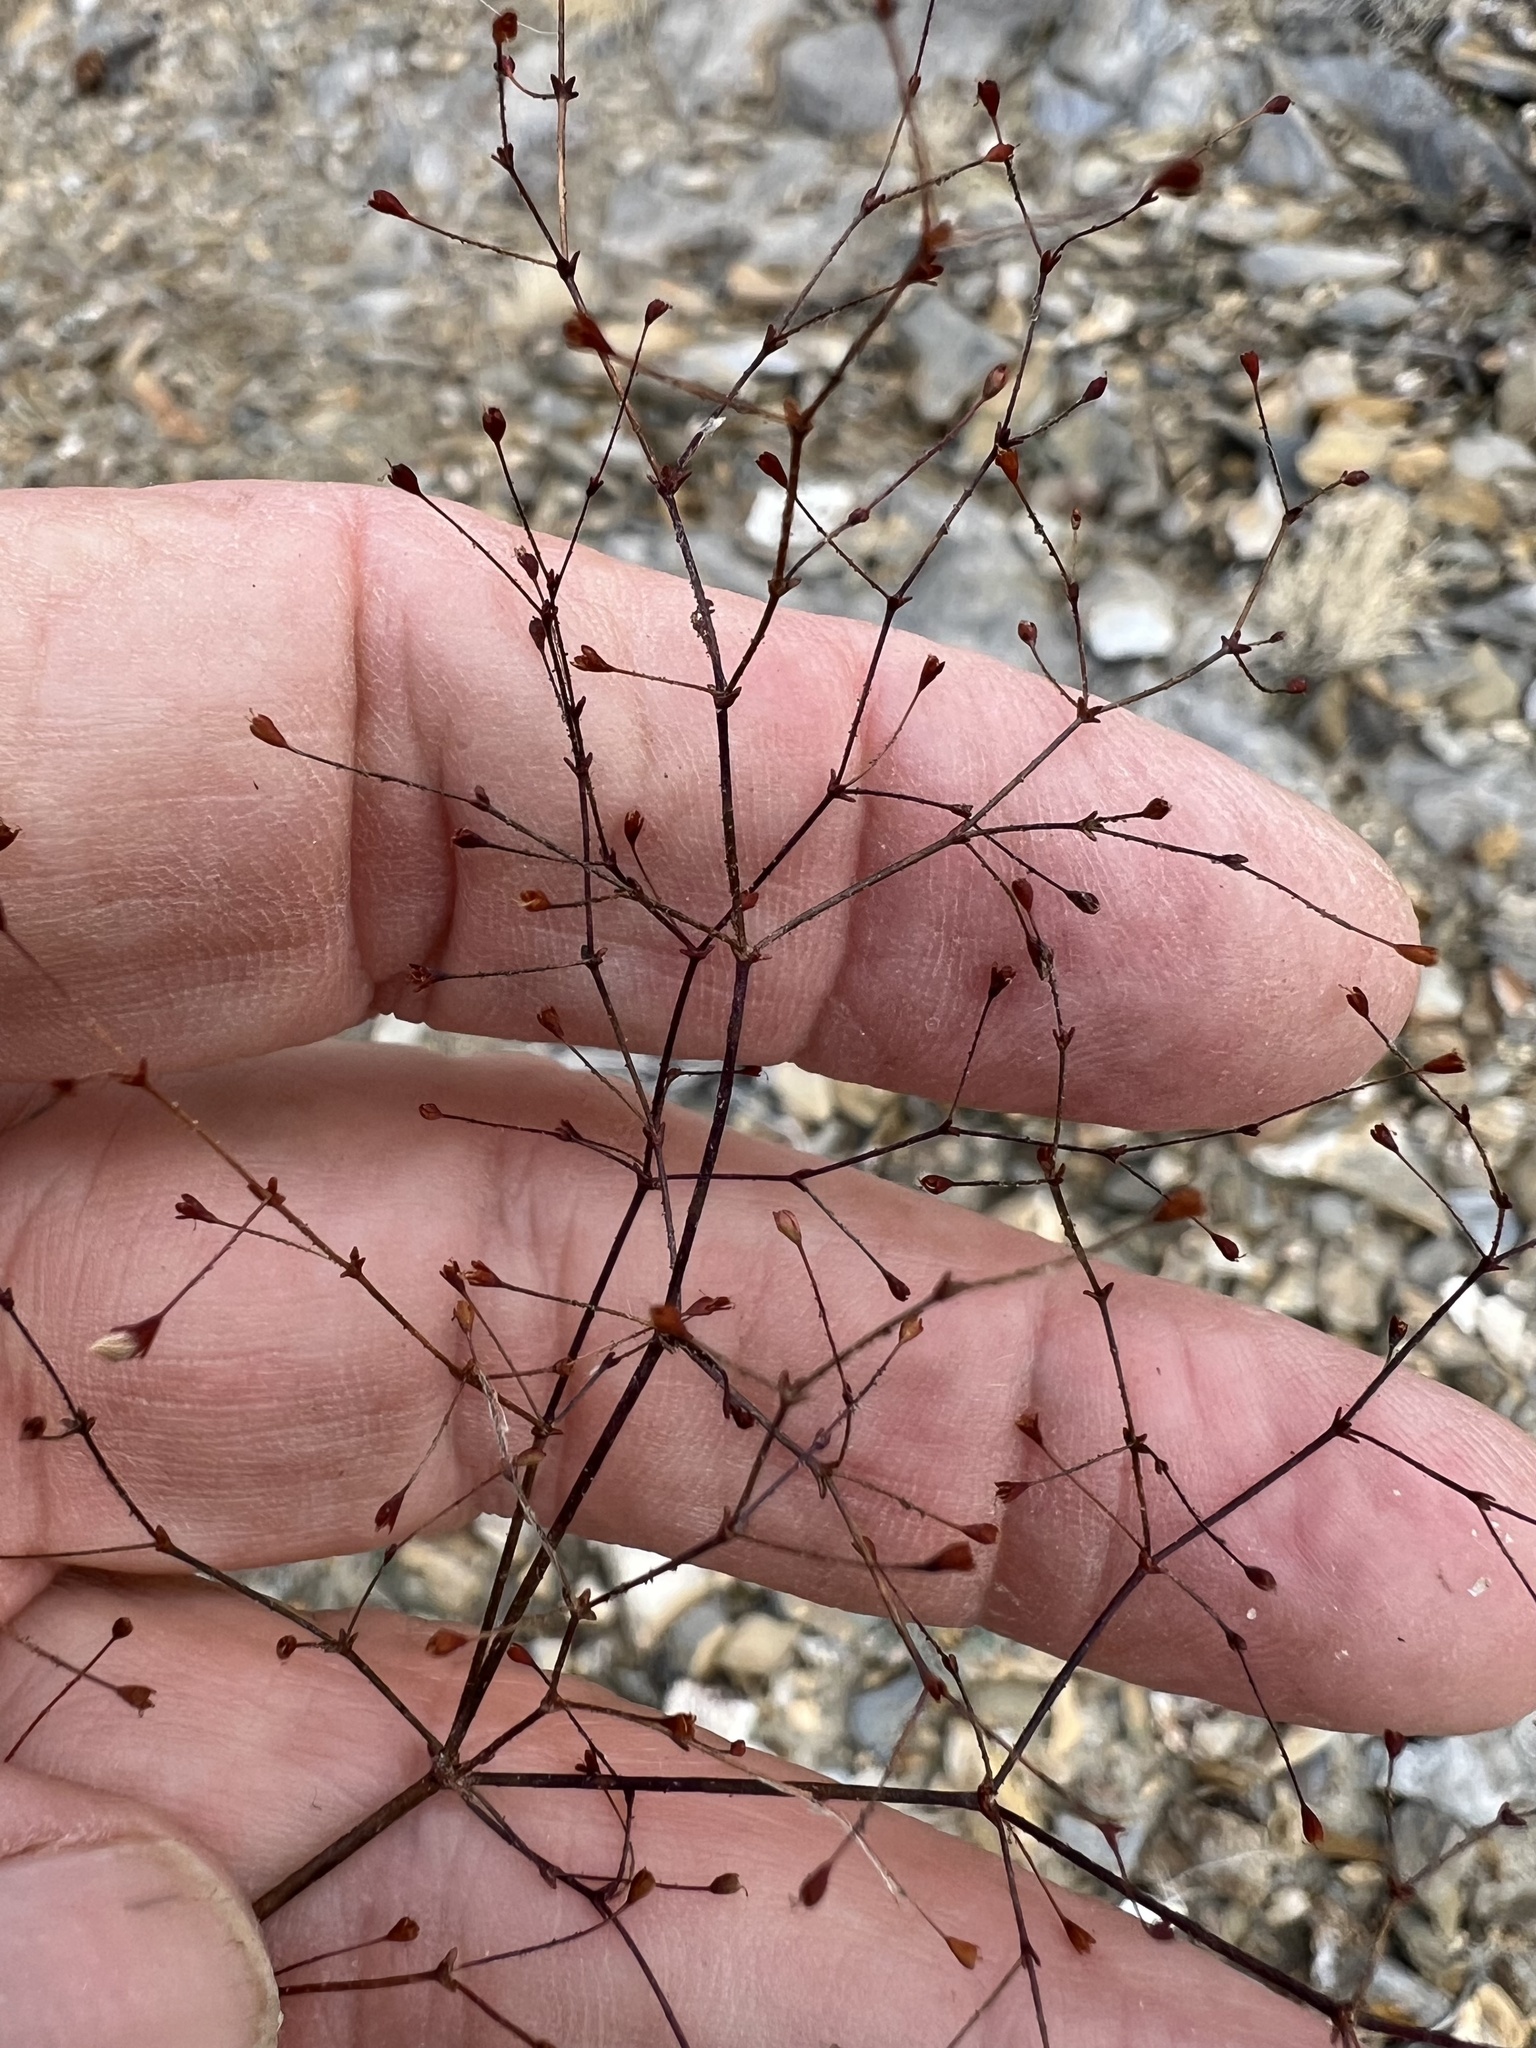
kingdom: Plantae
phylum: Tracheophyta
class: Magnoliopsida
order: Caryophyllales
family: Polygonaceae
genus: Eriogonum
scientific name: Eriogonum glandulosum
